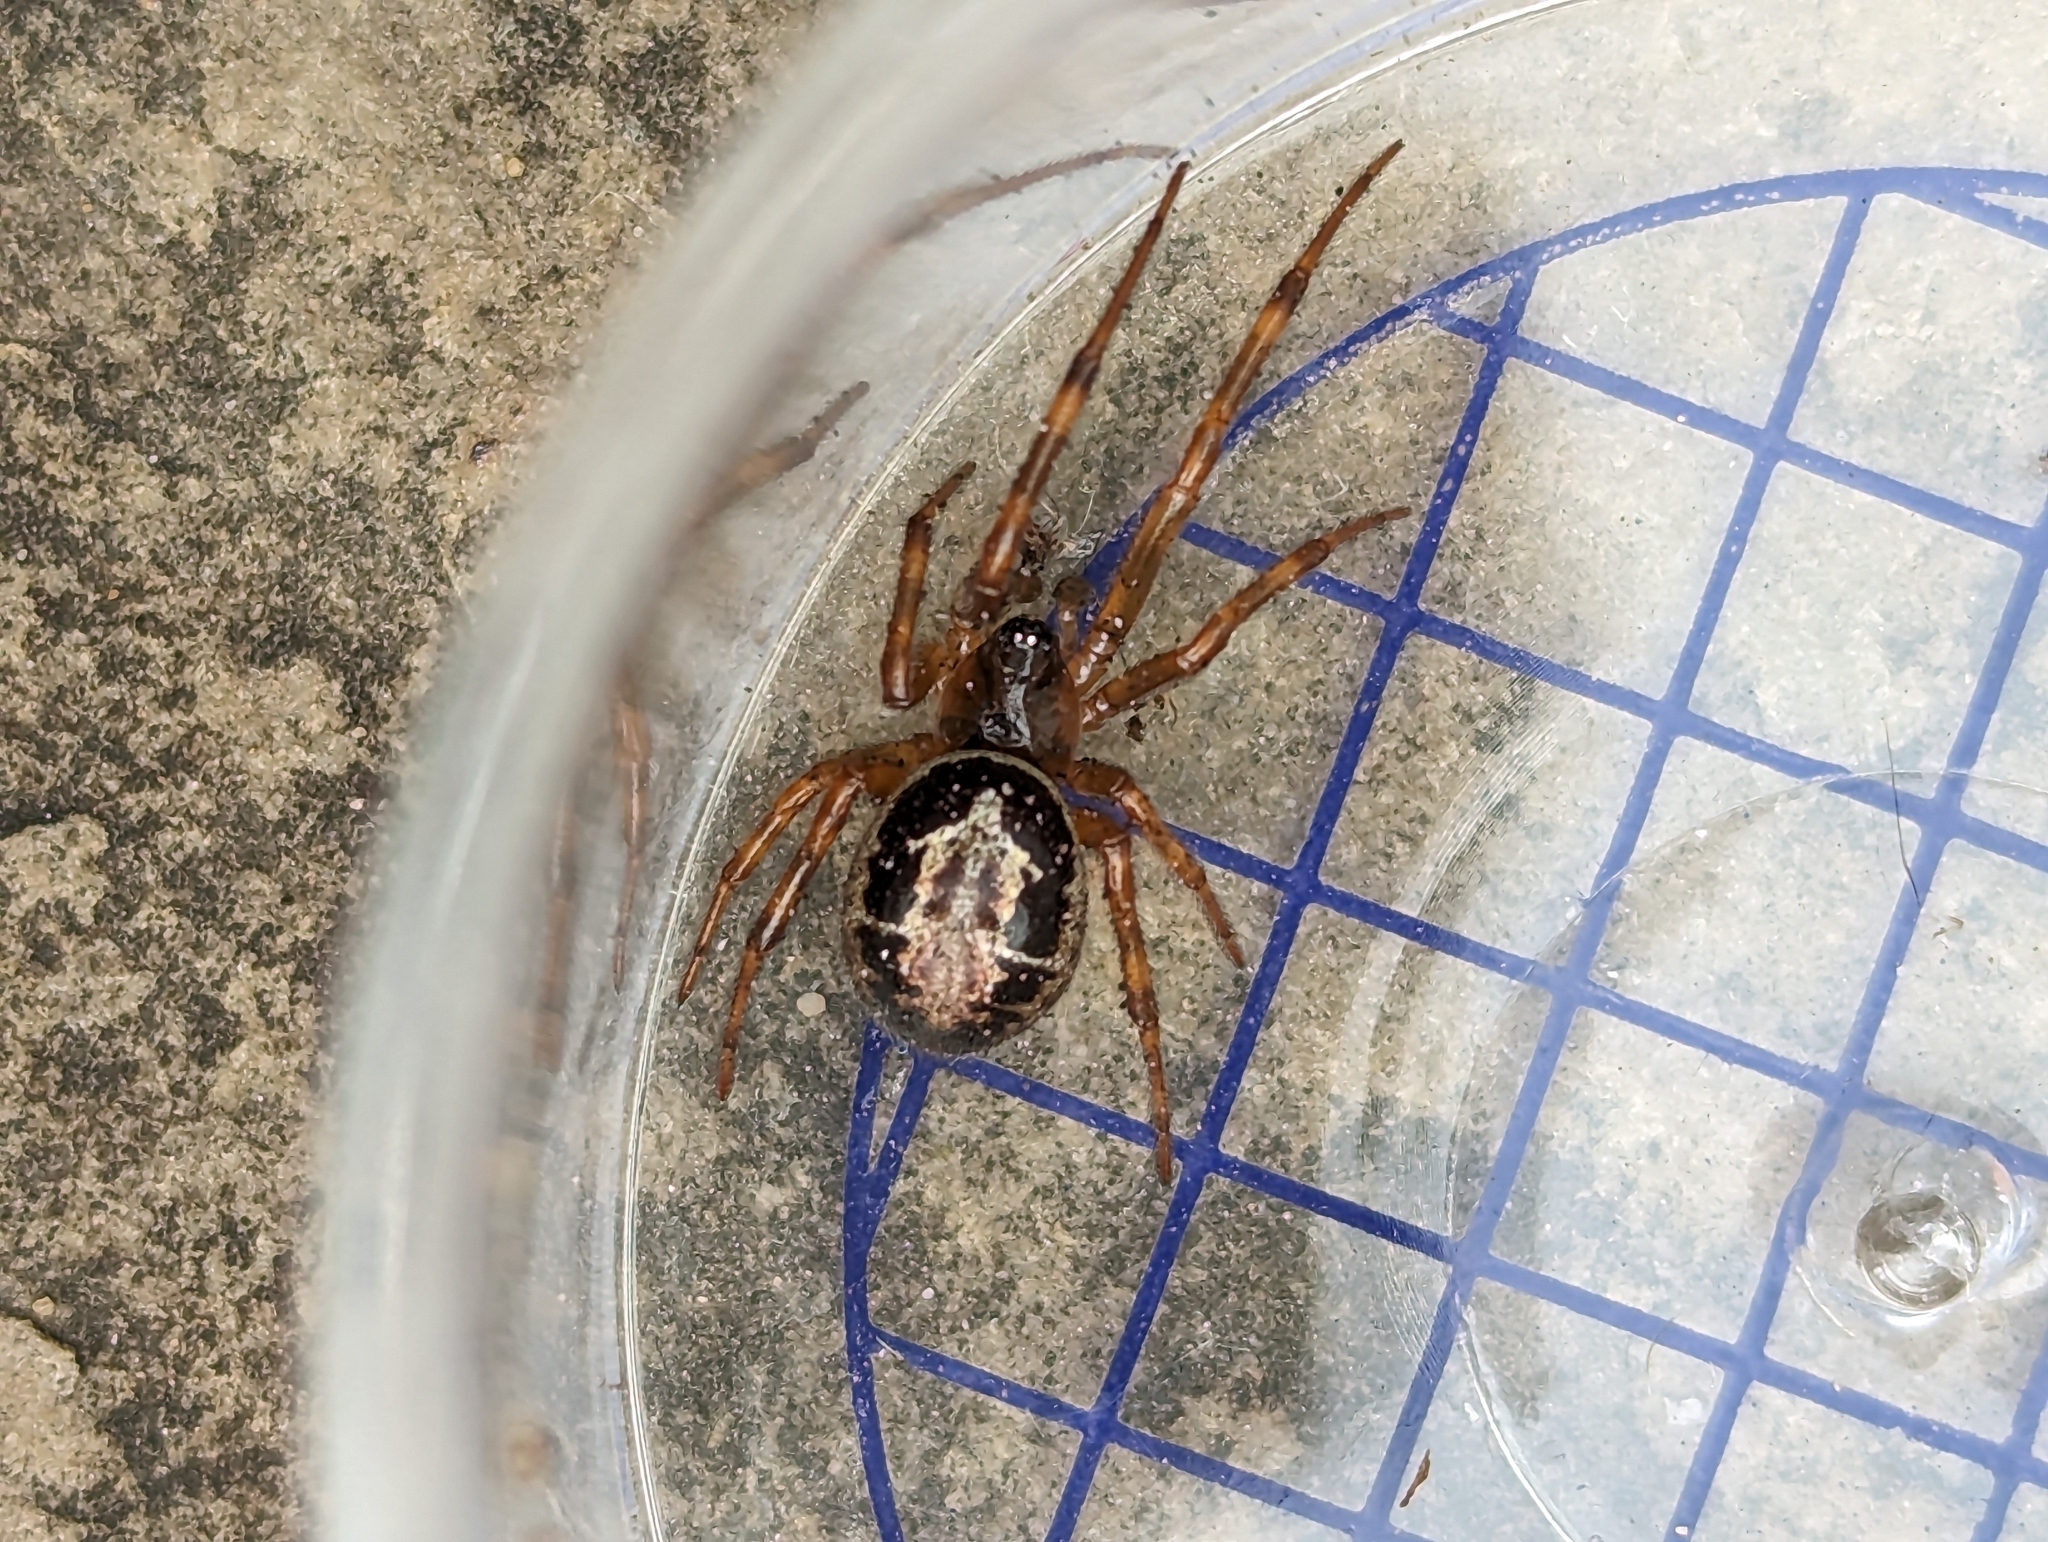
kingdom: Animalia
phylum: Arthropoda
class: Arachnida
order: Araneae
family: Theridiidae
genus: Steatoda
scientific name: Steatoda nobilis
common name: Cobweb weaver
